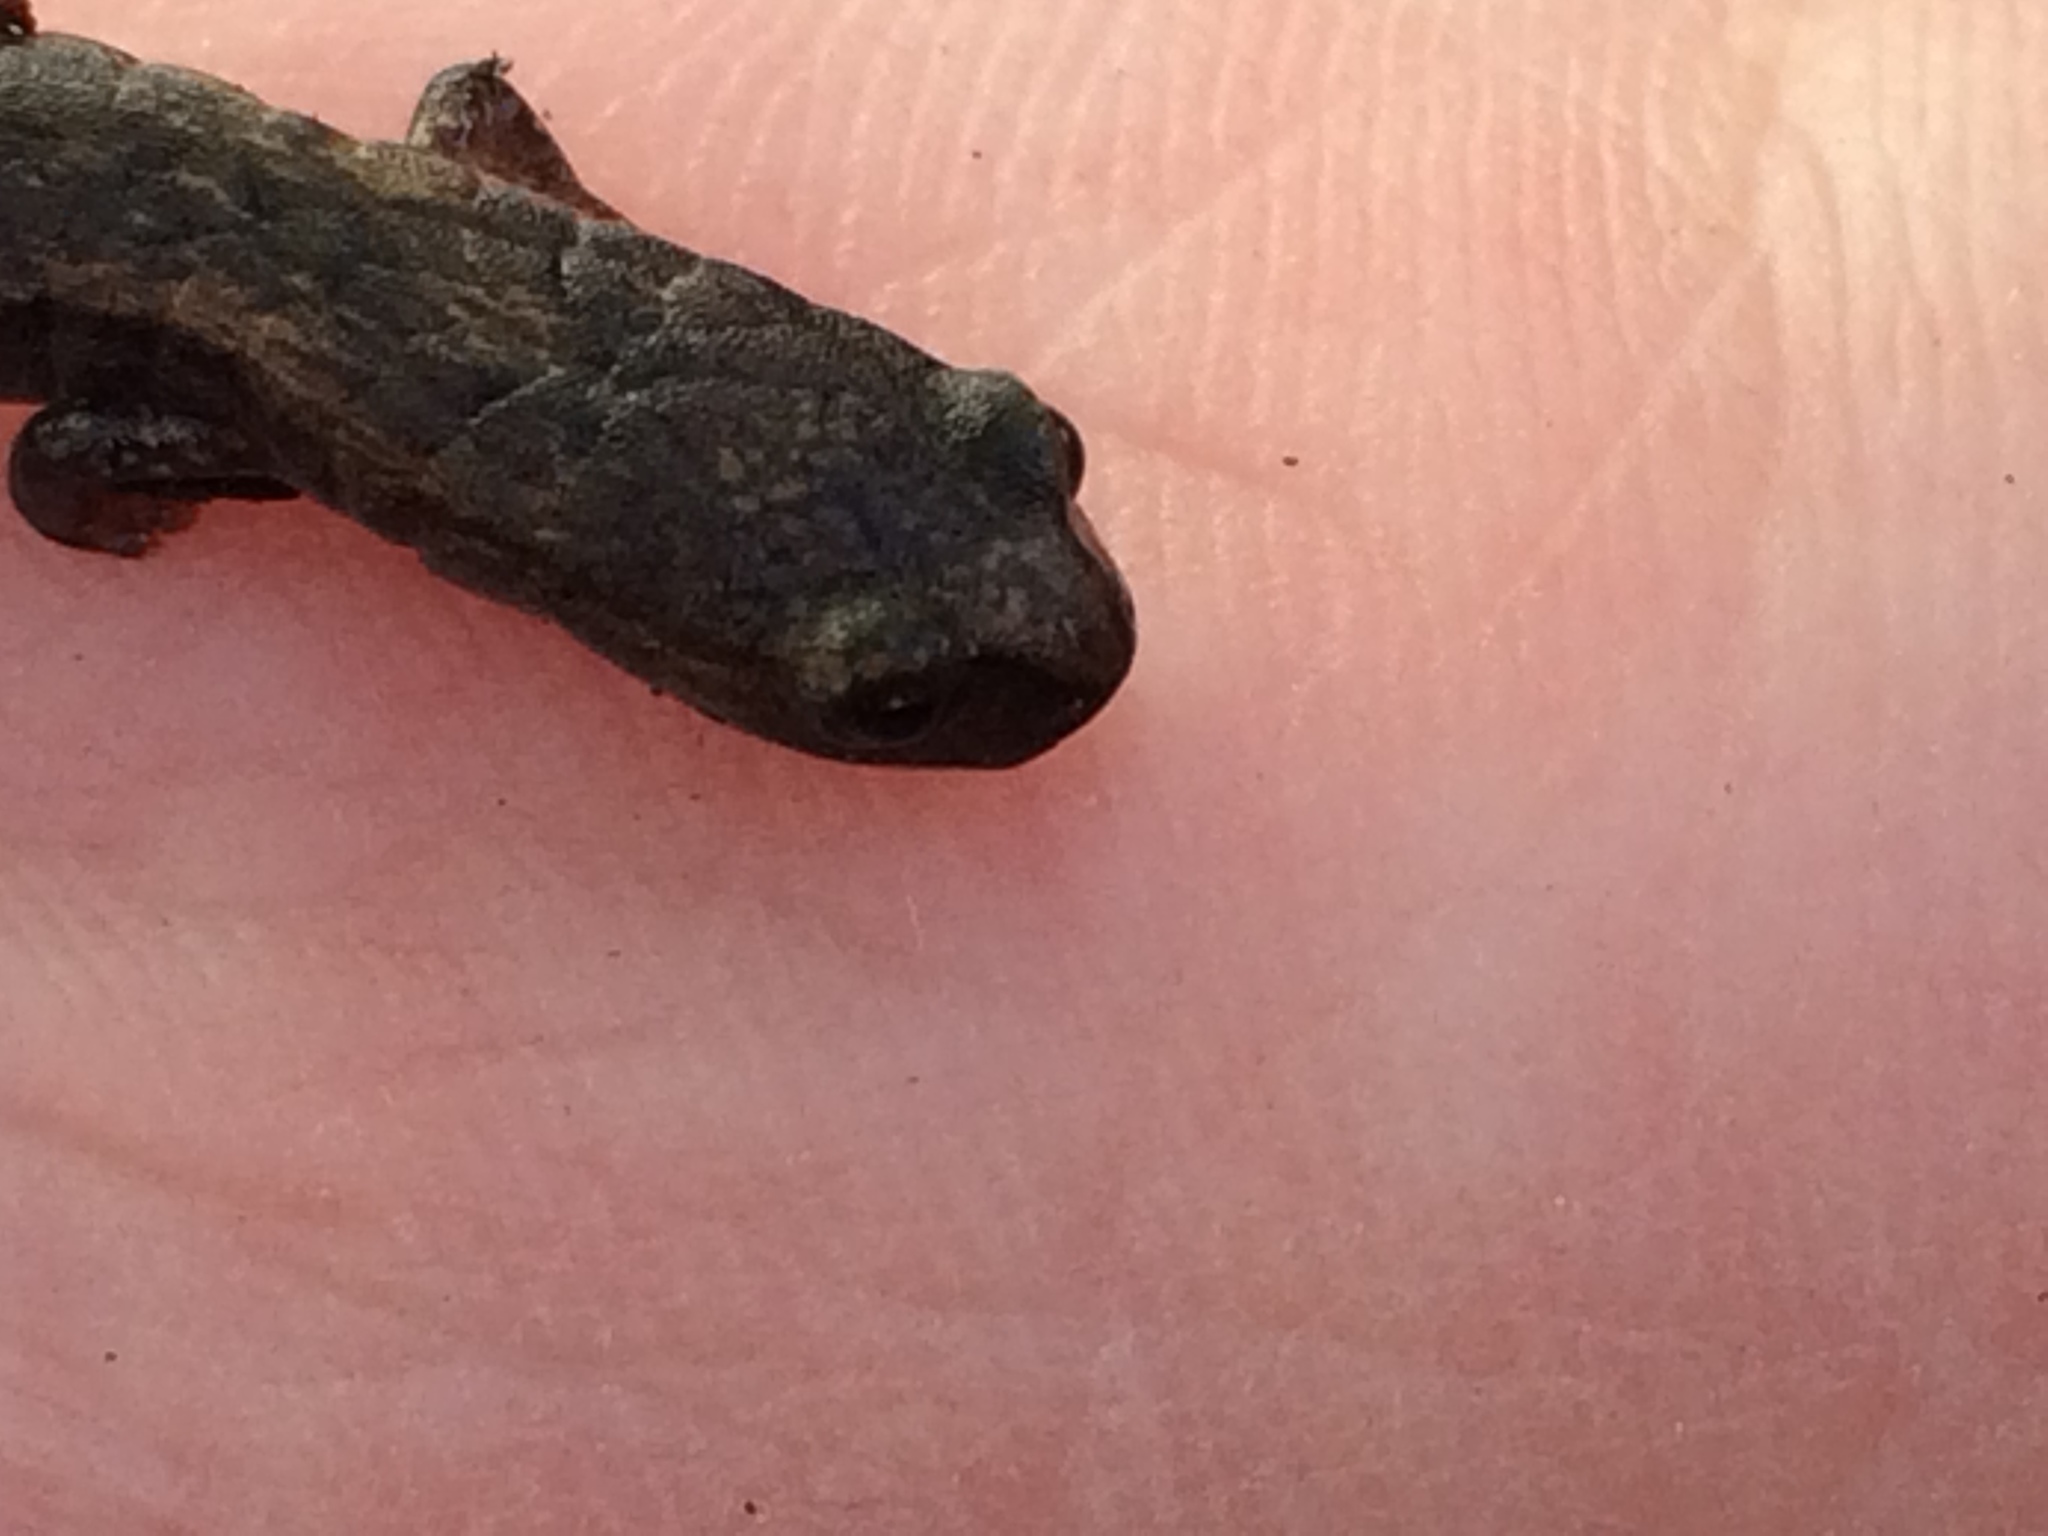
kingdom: Animalia
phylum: Chordata
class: Amphibia
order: Caudata
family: Plethodontidae
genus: Batrachoseps
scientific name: Batrachoseps attenuatus
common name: California slender salamander
